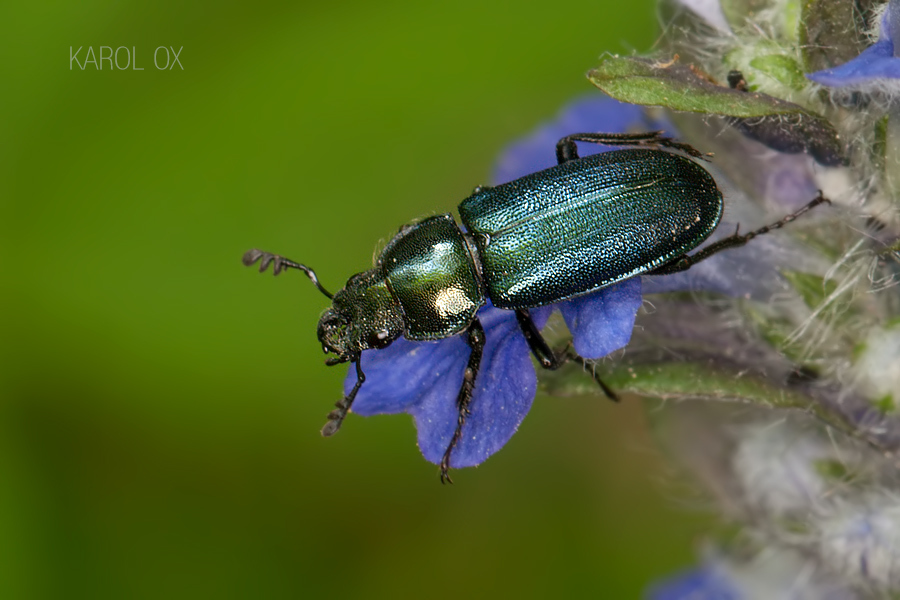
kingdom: Animalia
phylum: Arthropoda
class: Insecta
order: Coleoptera
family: Lucanidae
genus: Platycerus
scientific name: Platycerus caraboides
